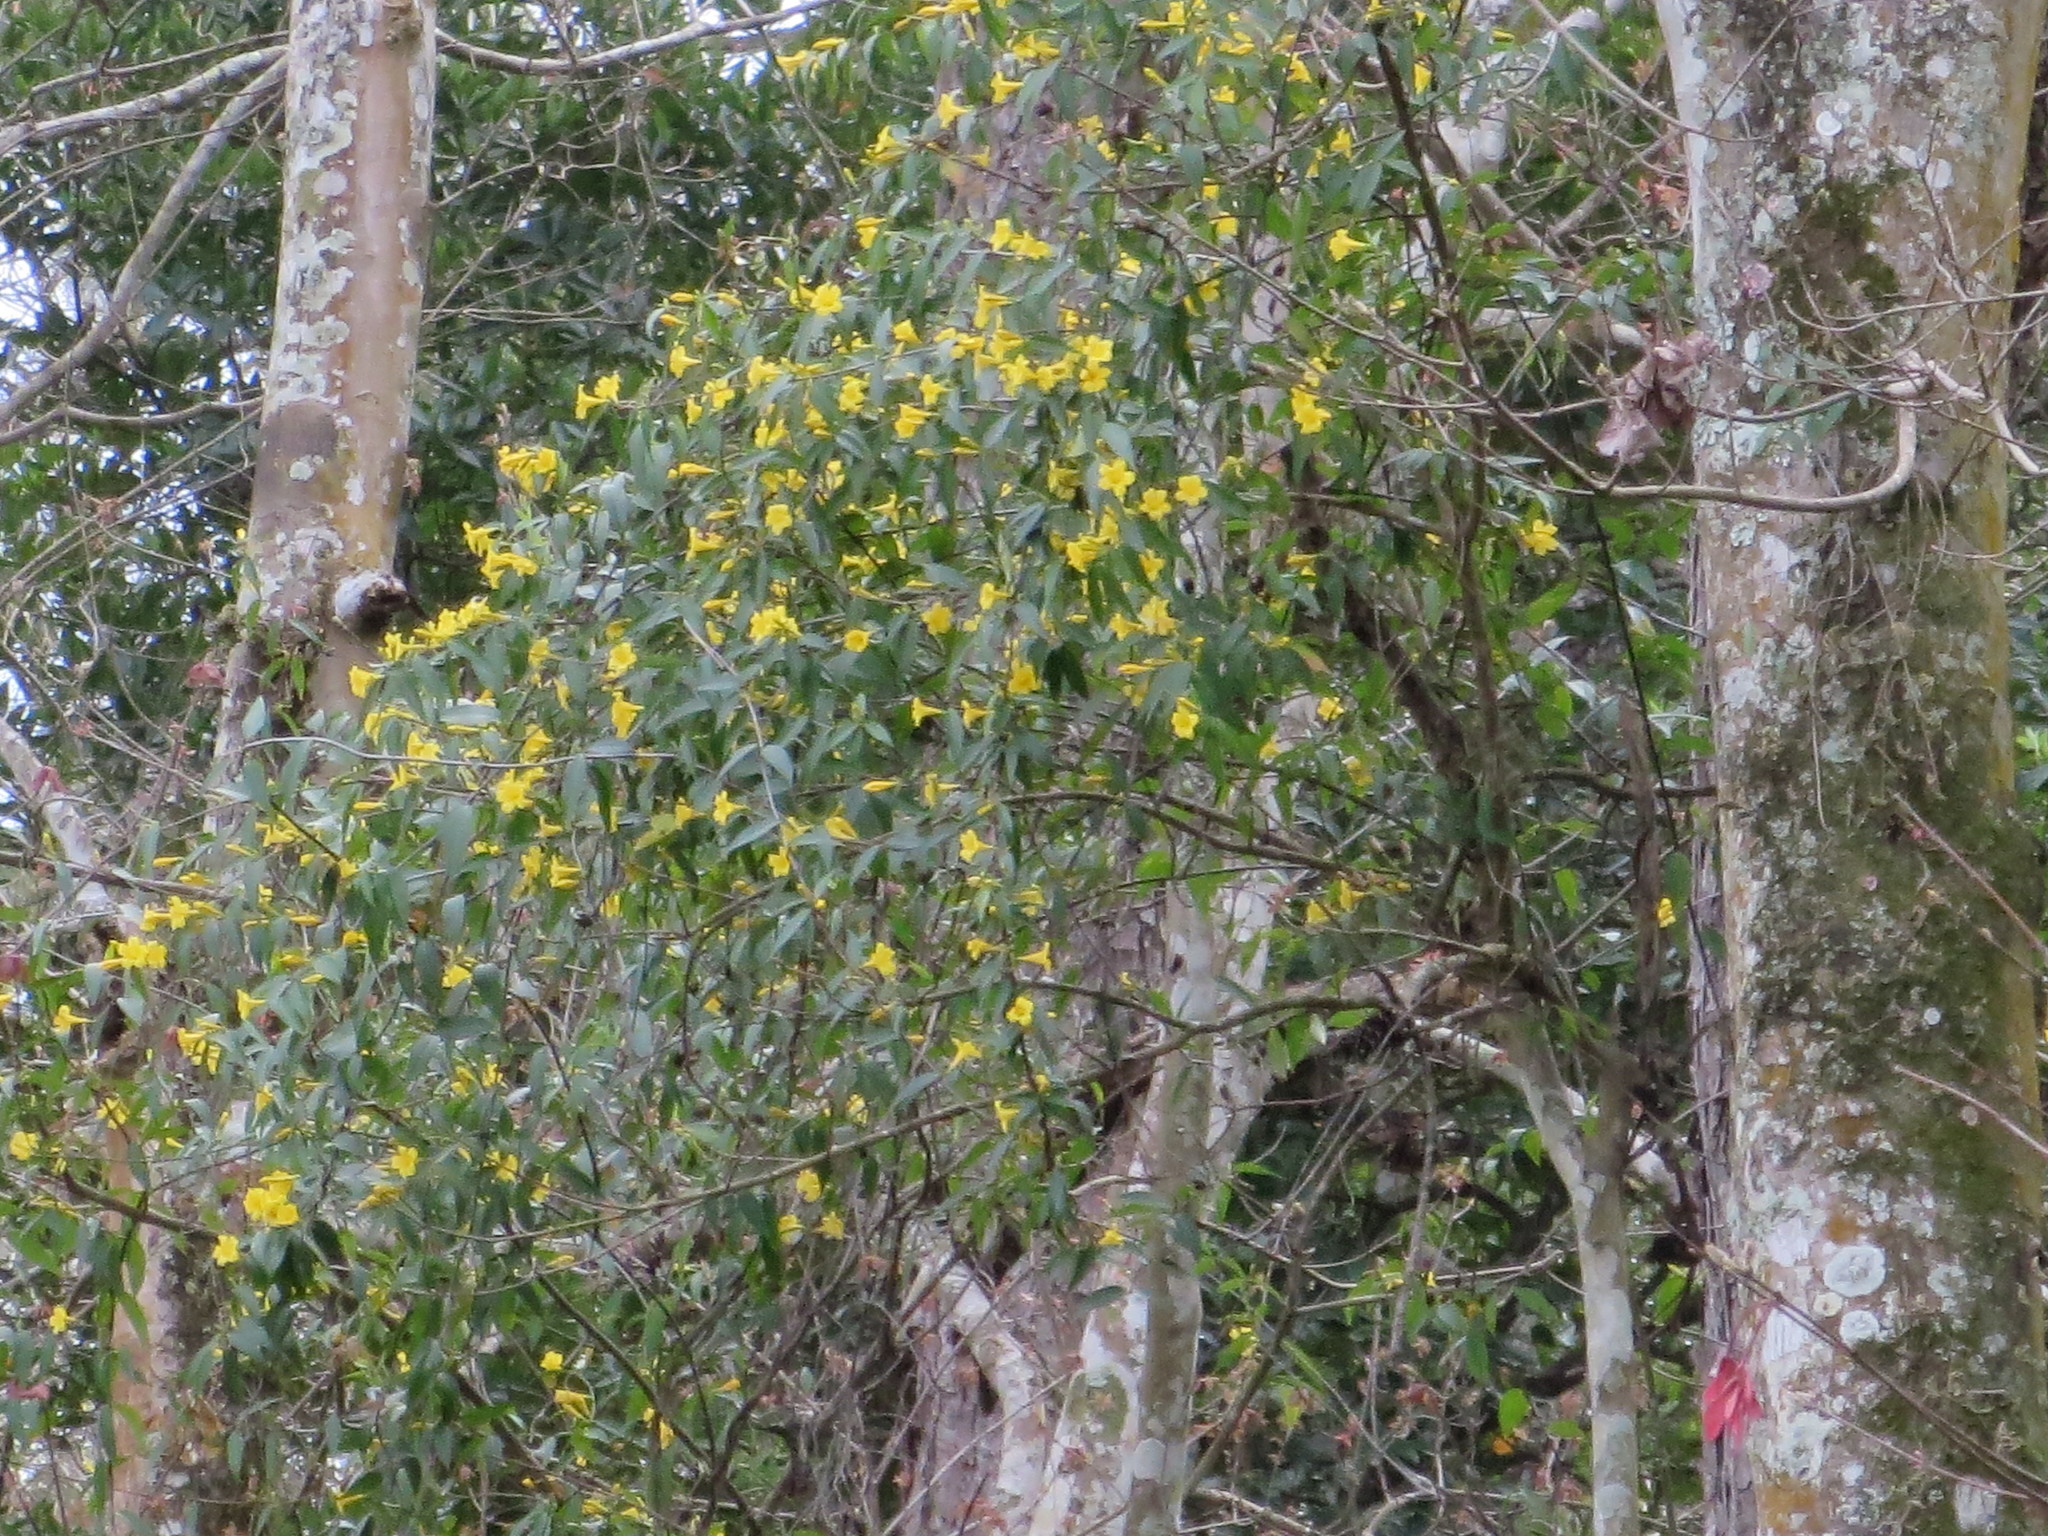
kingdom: Plantae
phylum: Tracheophyta
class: Magnoliopsida
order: Gentianales
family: Gelsemiaceae
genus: Gelsemium
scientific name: Gelsemium sempervirens
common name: Carolina-jasmine
